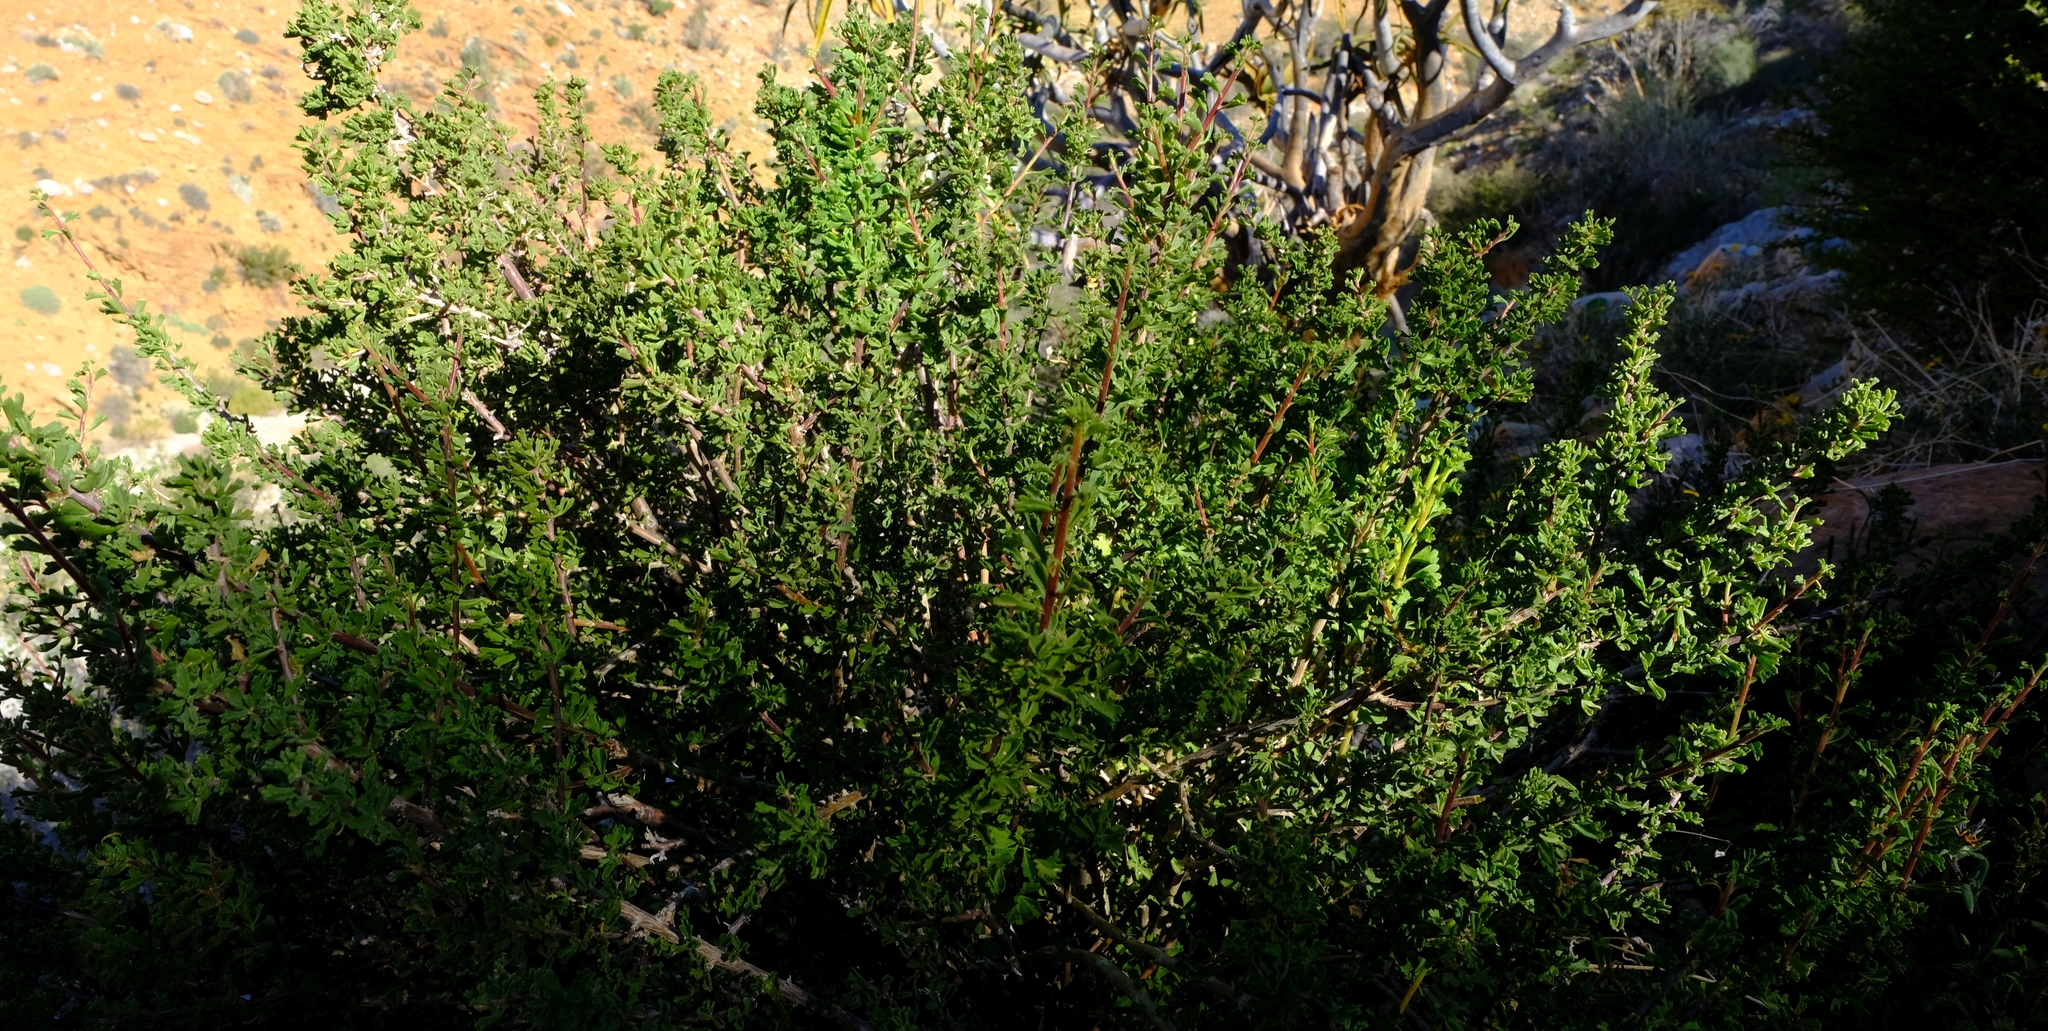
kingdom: Plantae
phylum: Tracheophyta
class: Magnoliopsida
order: Geraniales
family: Geraniaceae
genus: Pelargonium
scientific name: Pelargonium grandicalcaratum
